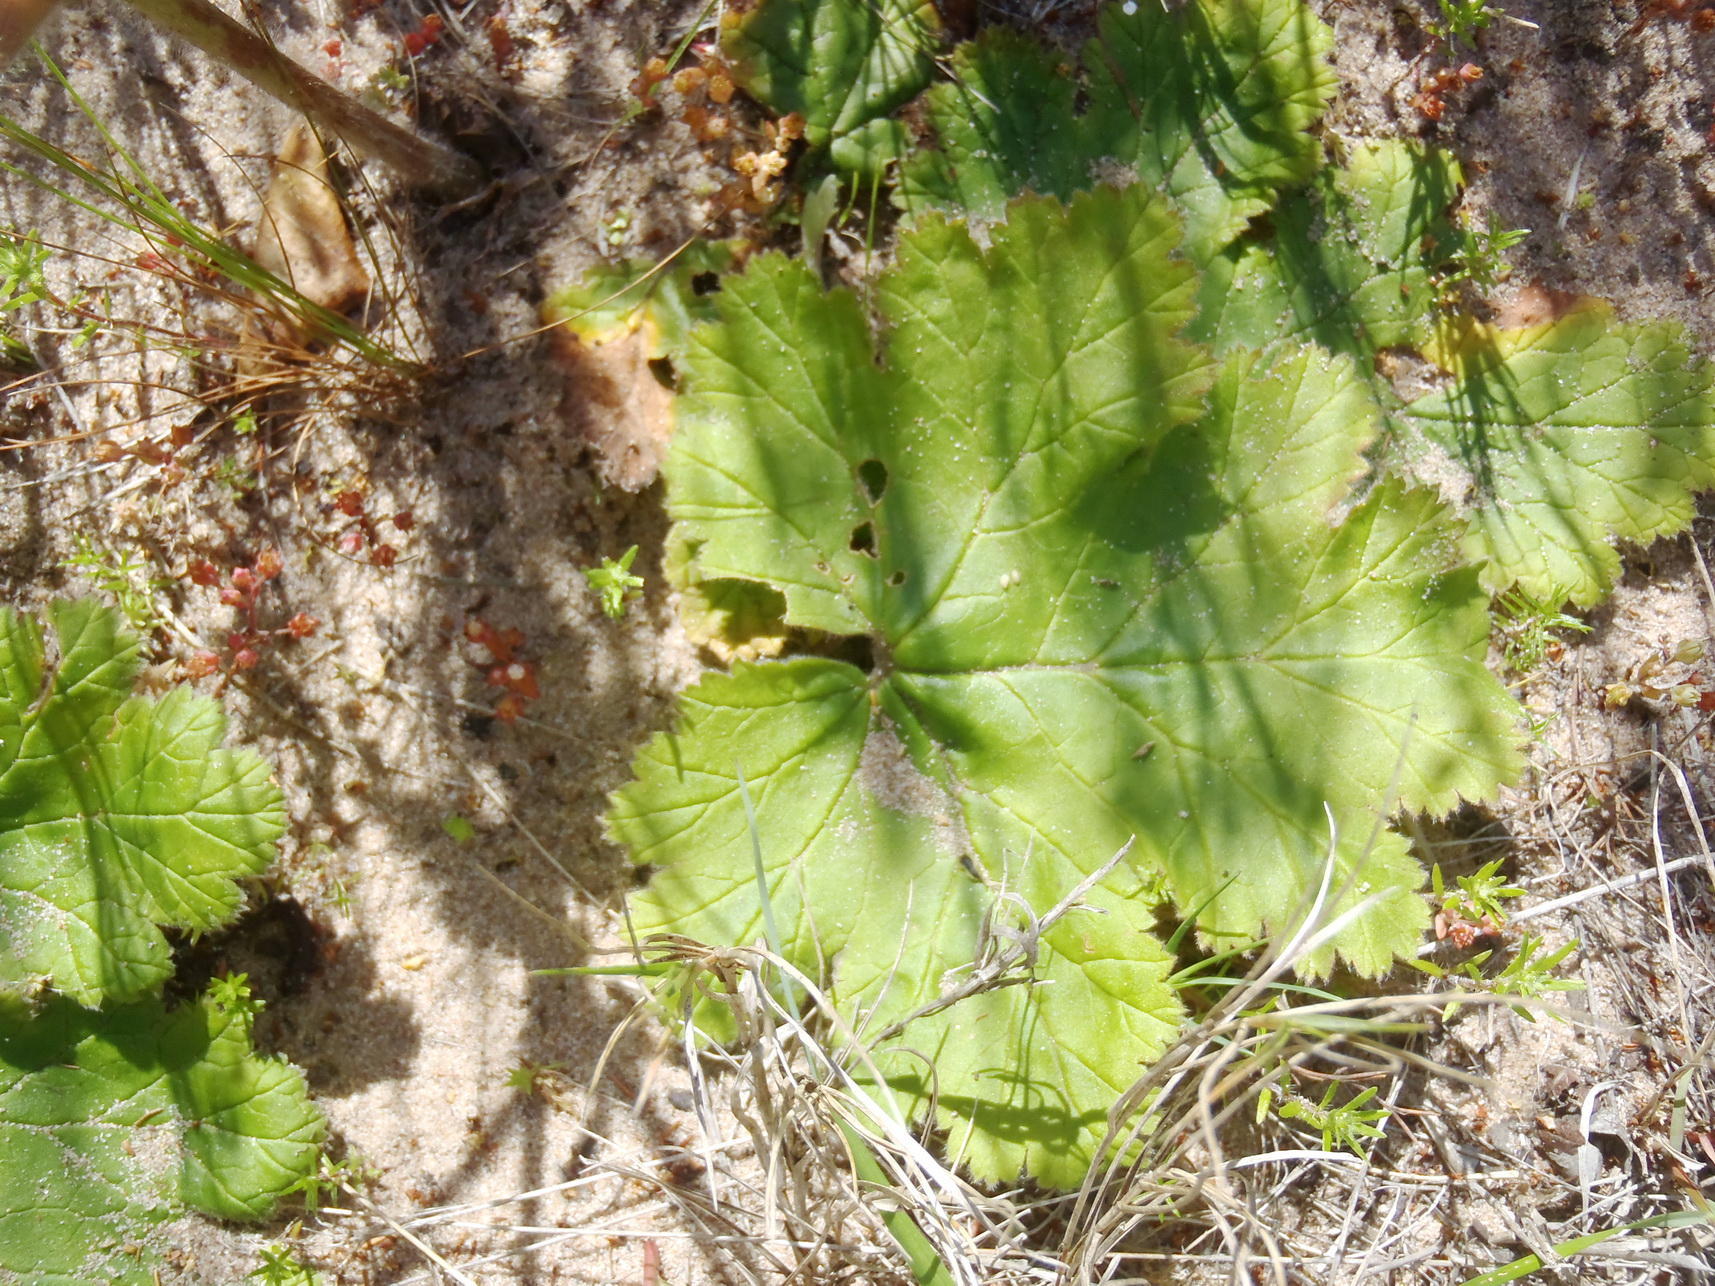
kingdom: Plantae
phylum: Tracheophyta
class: Magnoliopsida
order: Geraniales
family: Geraniaceae
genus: Pelargonium
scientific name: Pelargonium lobatum
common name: Vine-leaf pelargonium
